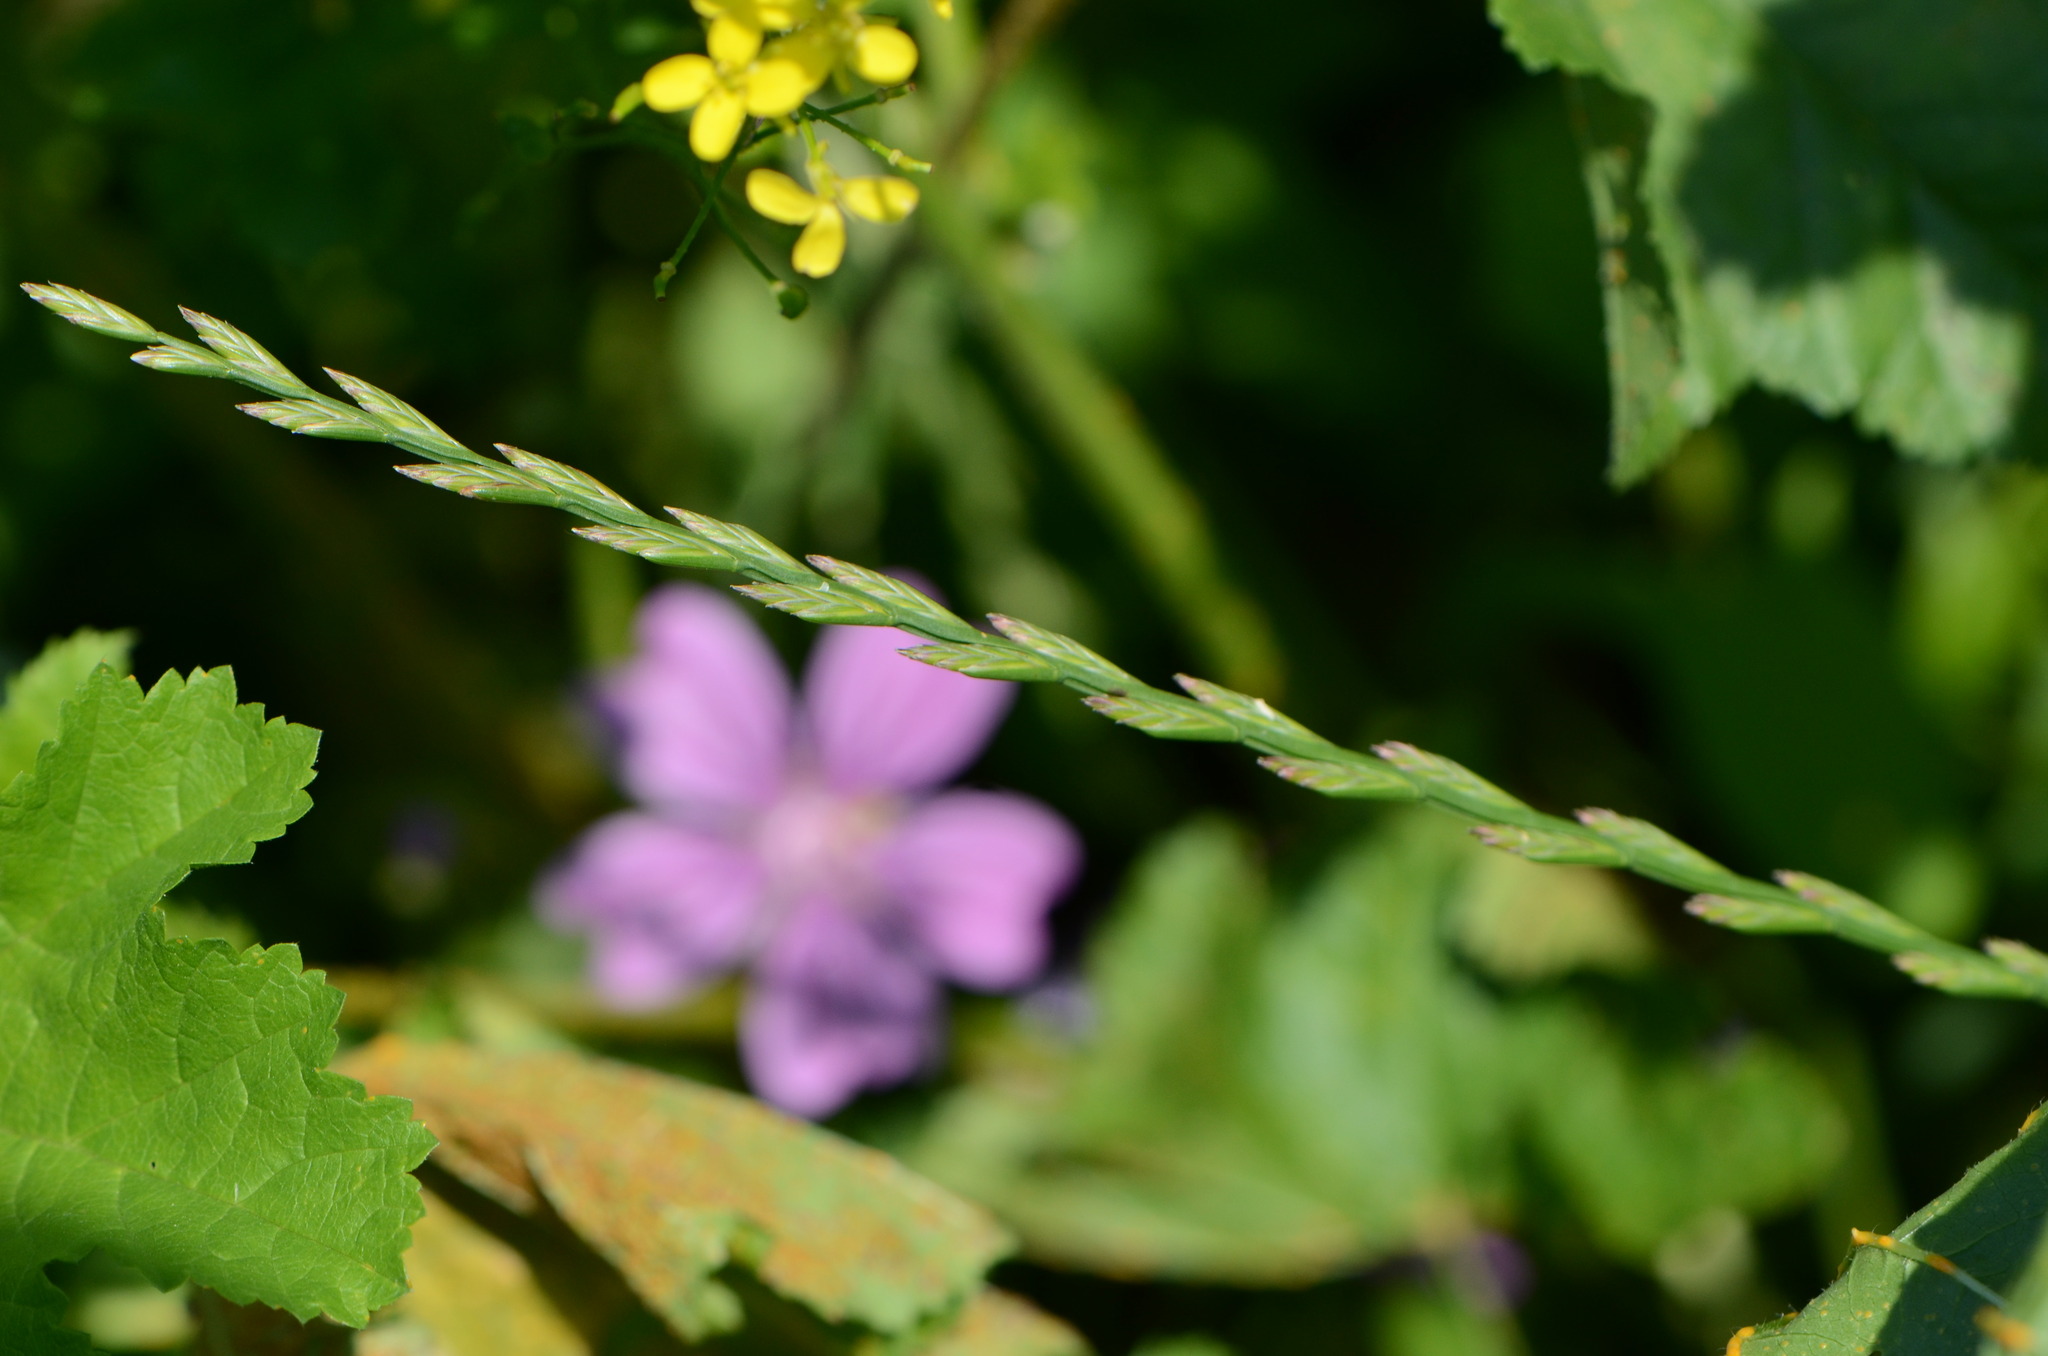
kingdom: Plantae
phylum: Tracheophyta
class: Liliopsida
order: Poales
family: Poaceae
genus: Lolium
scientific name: Lolium perenne
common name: Perennial ryegrass
